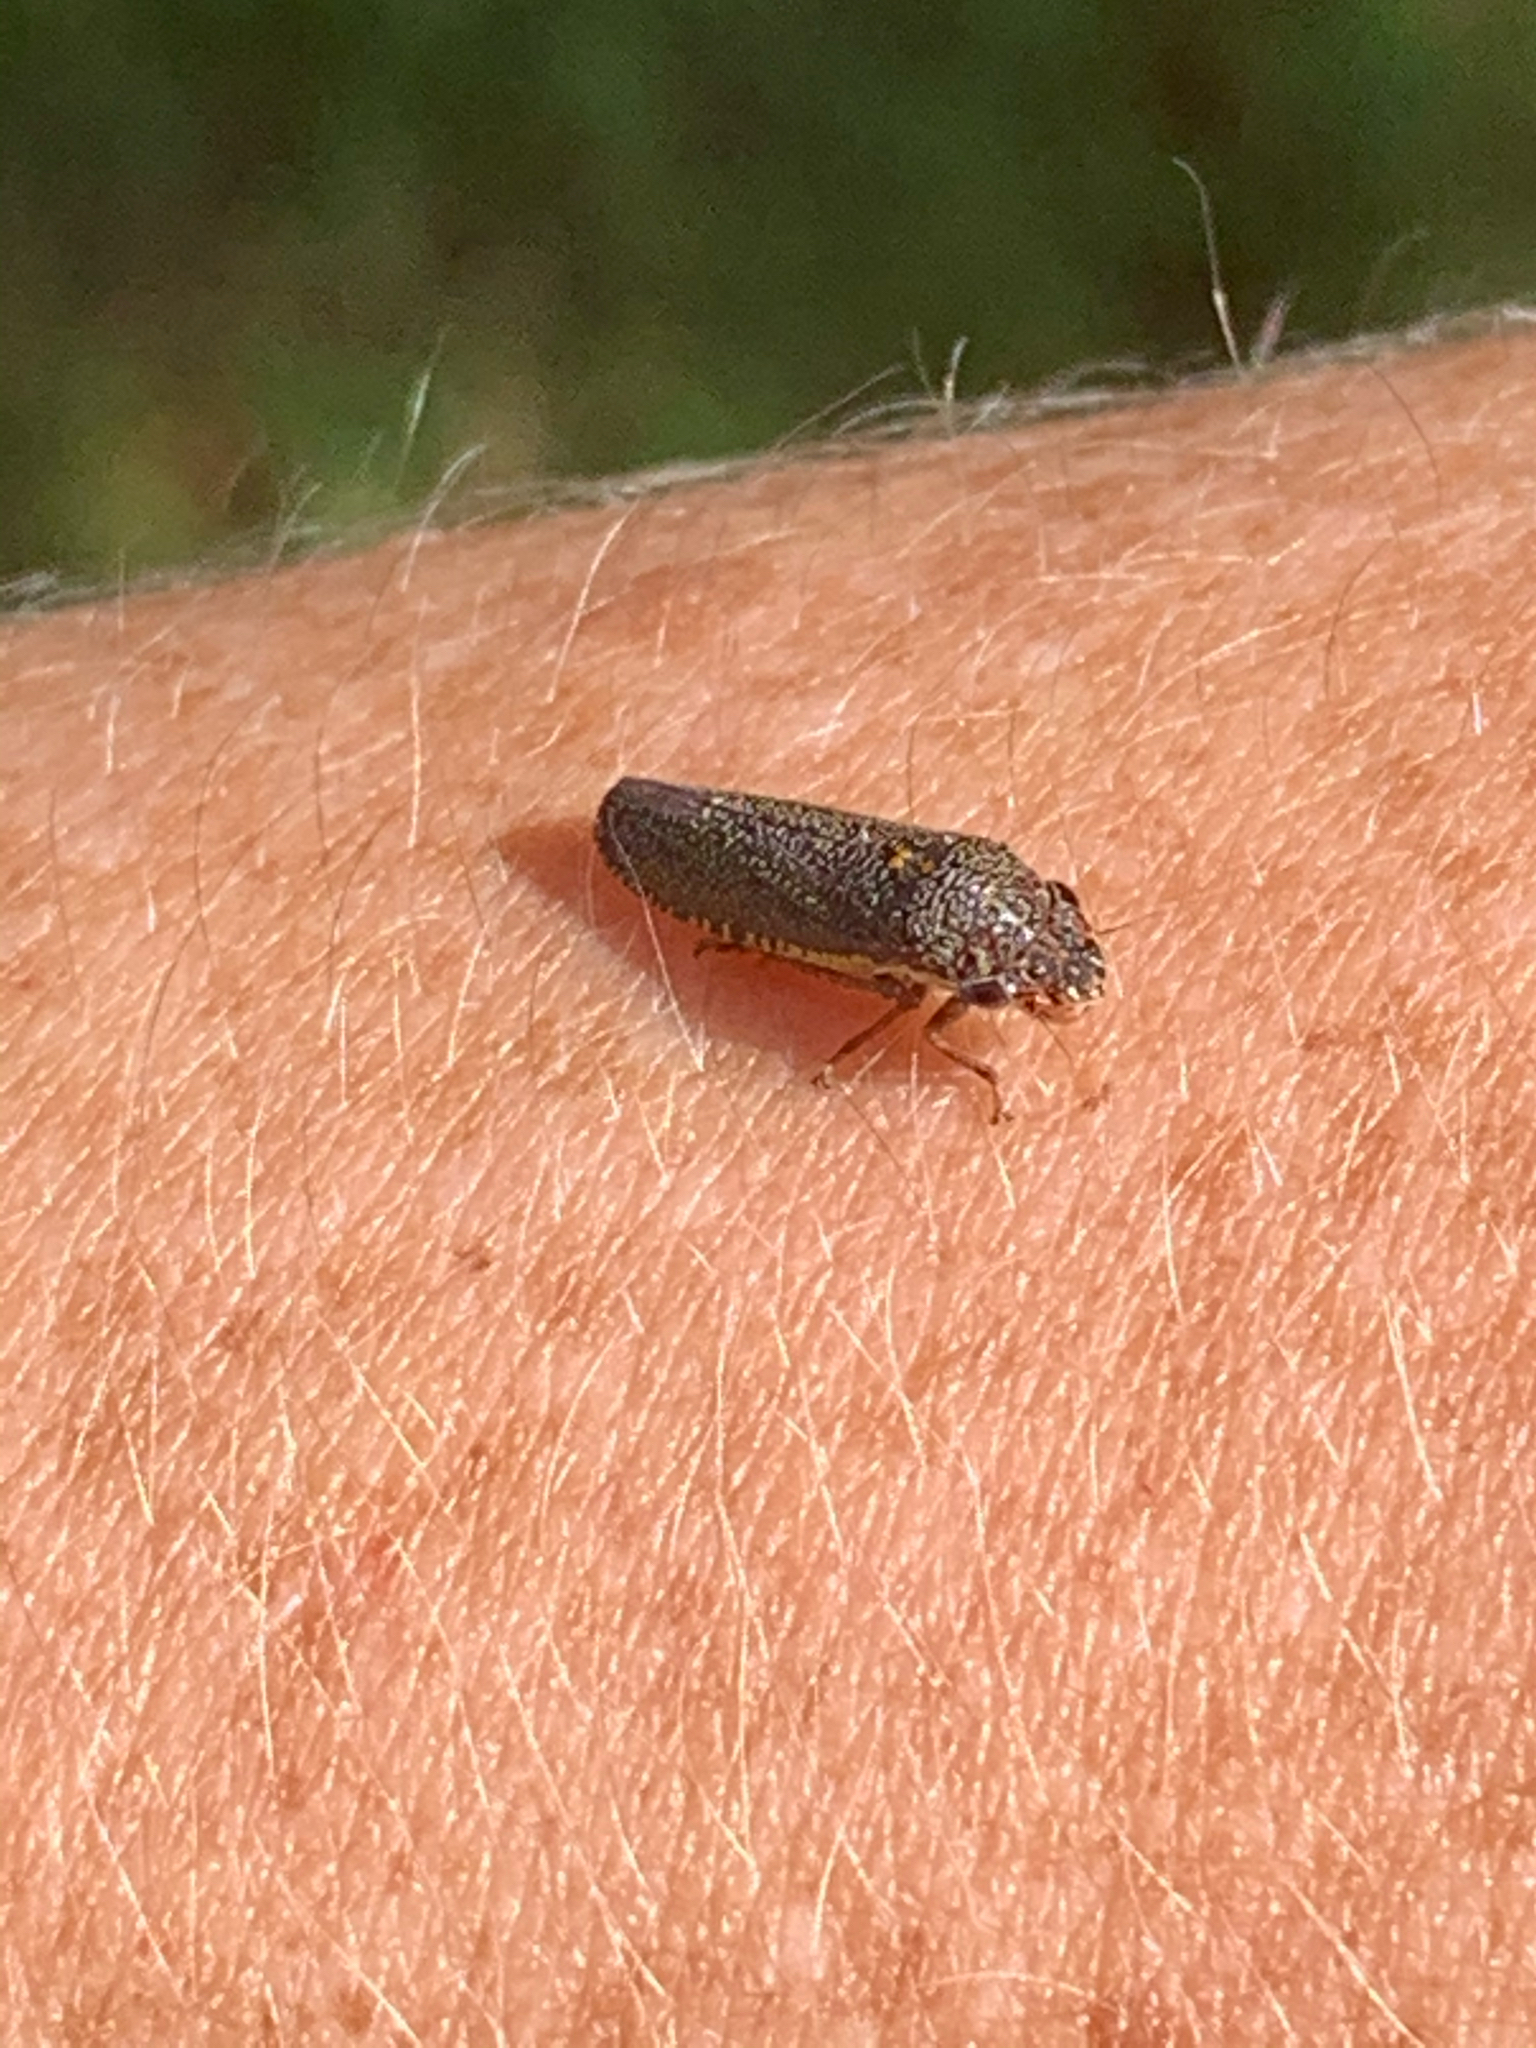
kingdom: Animalia
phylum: Arthropoda
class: Insecta
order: Hemiptera
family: Cicadellidae
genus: Paraulacizes
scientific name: Paraulacizes irrorata
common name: Speckled sharpshooter
